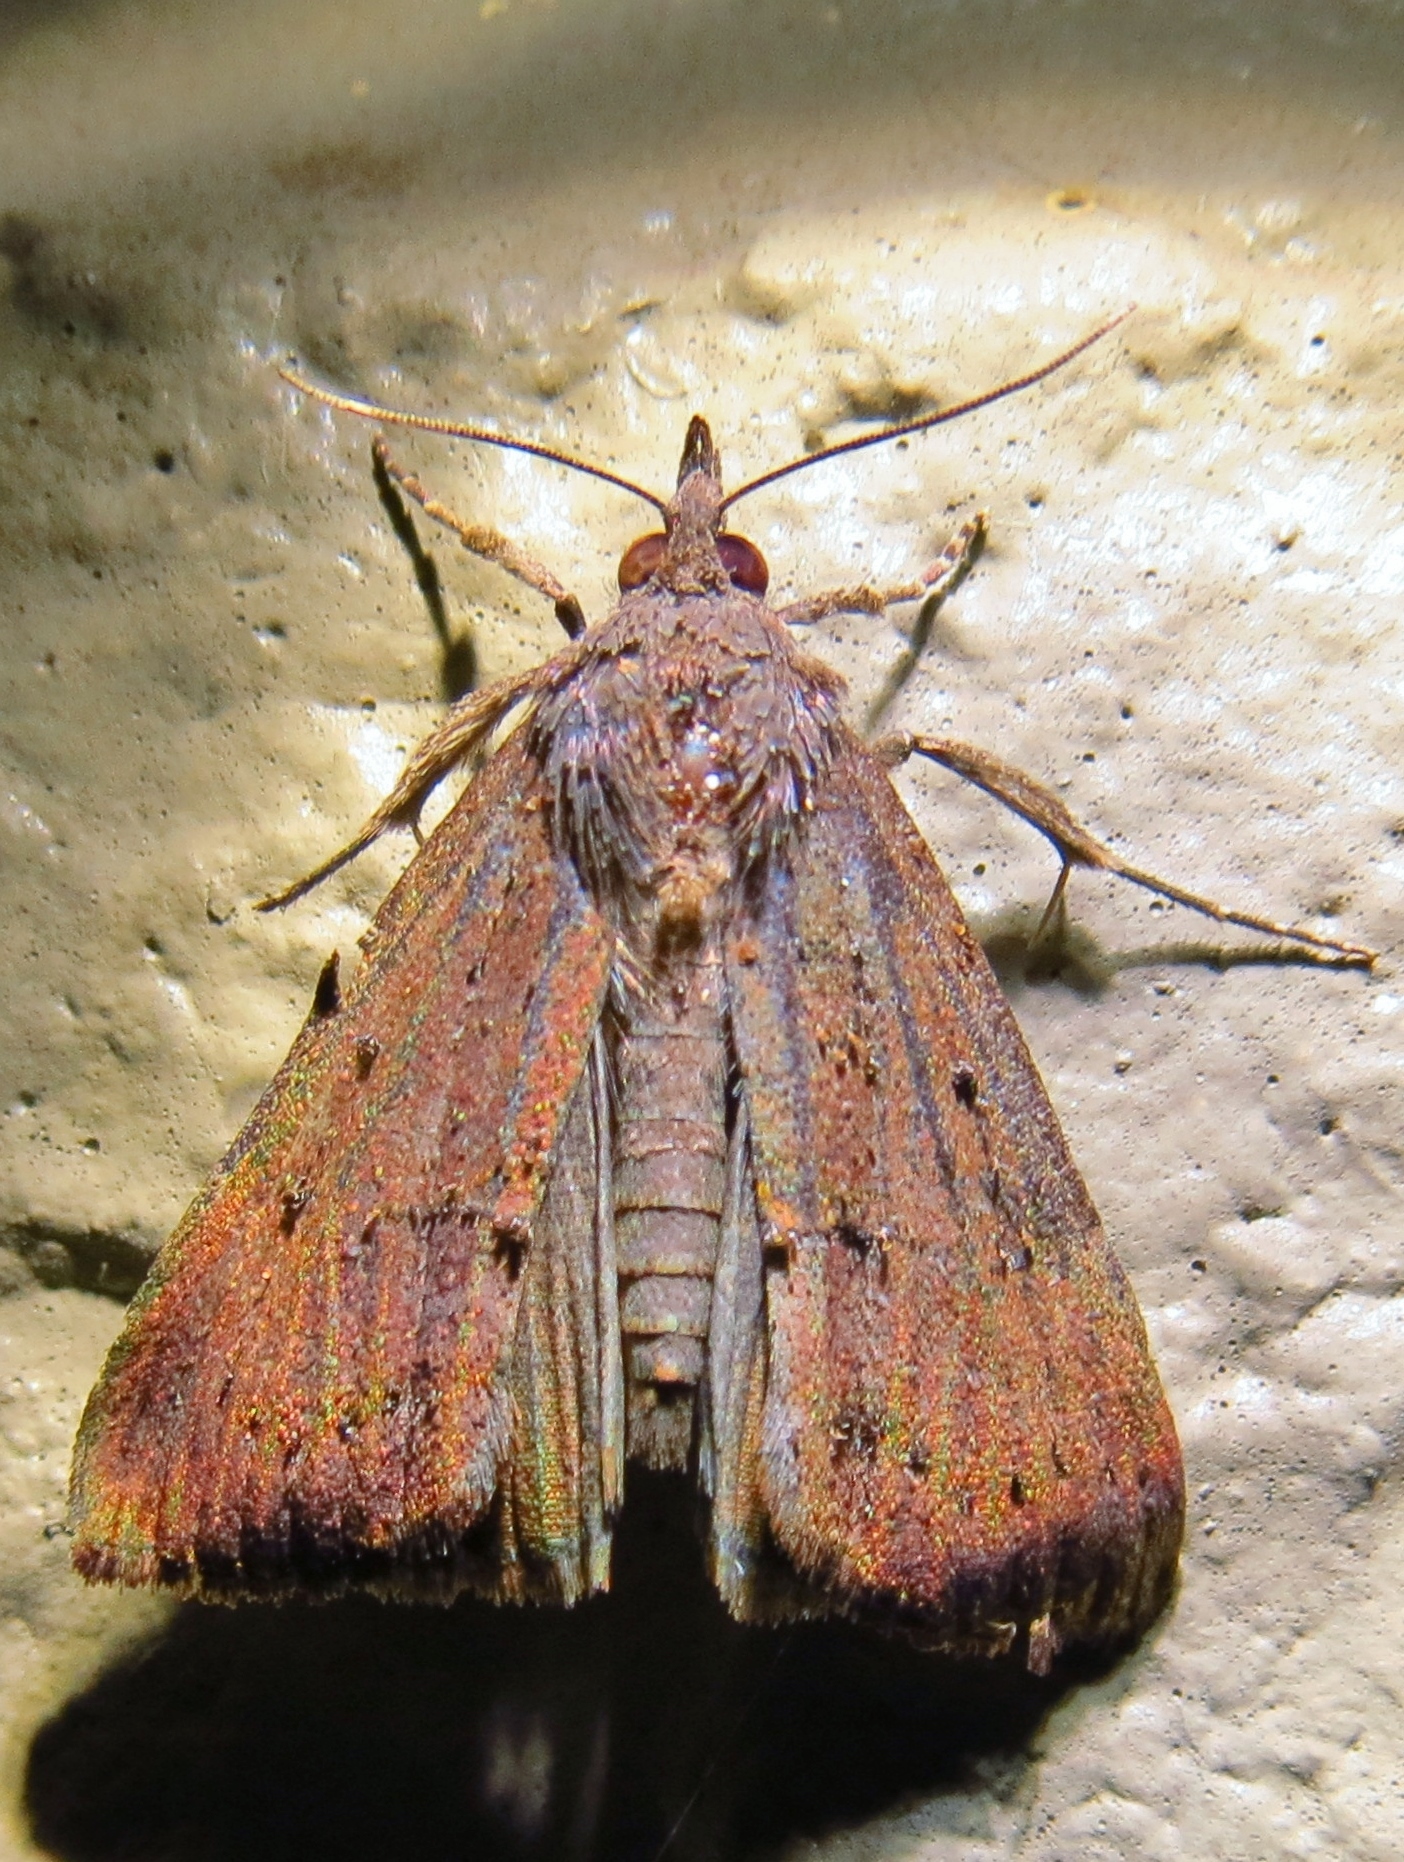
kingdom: Animalia
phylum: Arthropoda
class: Insecta
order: Lepidoptera
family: Erebidae
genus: Hypena
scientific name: Hypena scabra
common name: Green cloverworm
